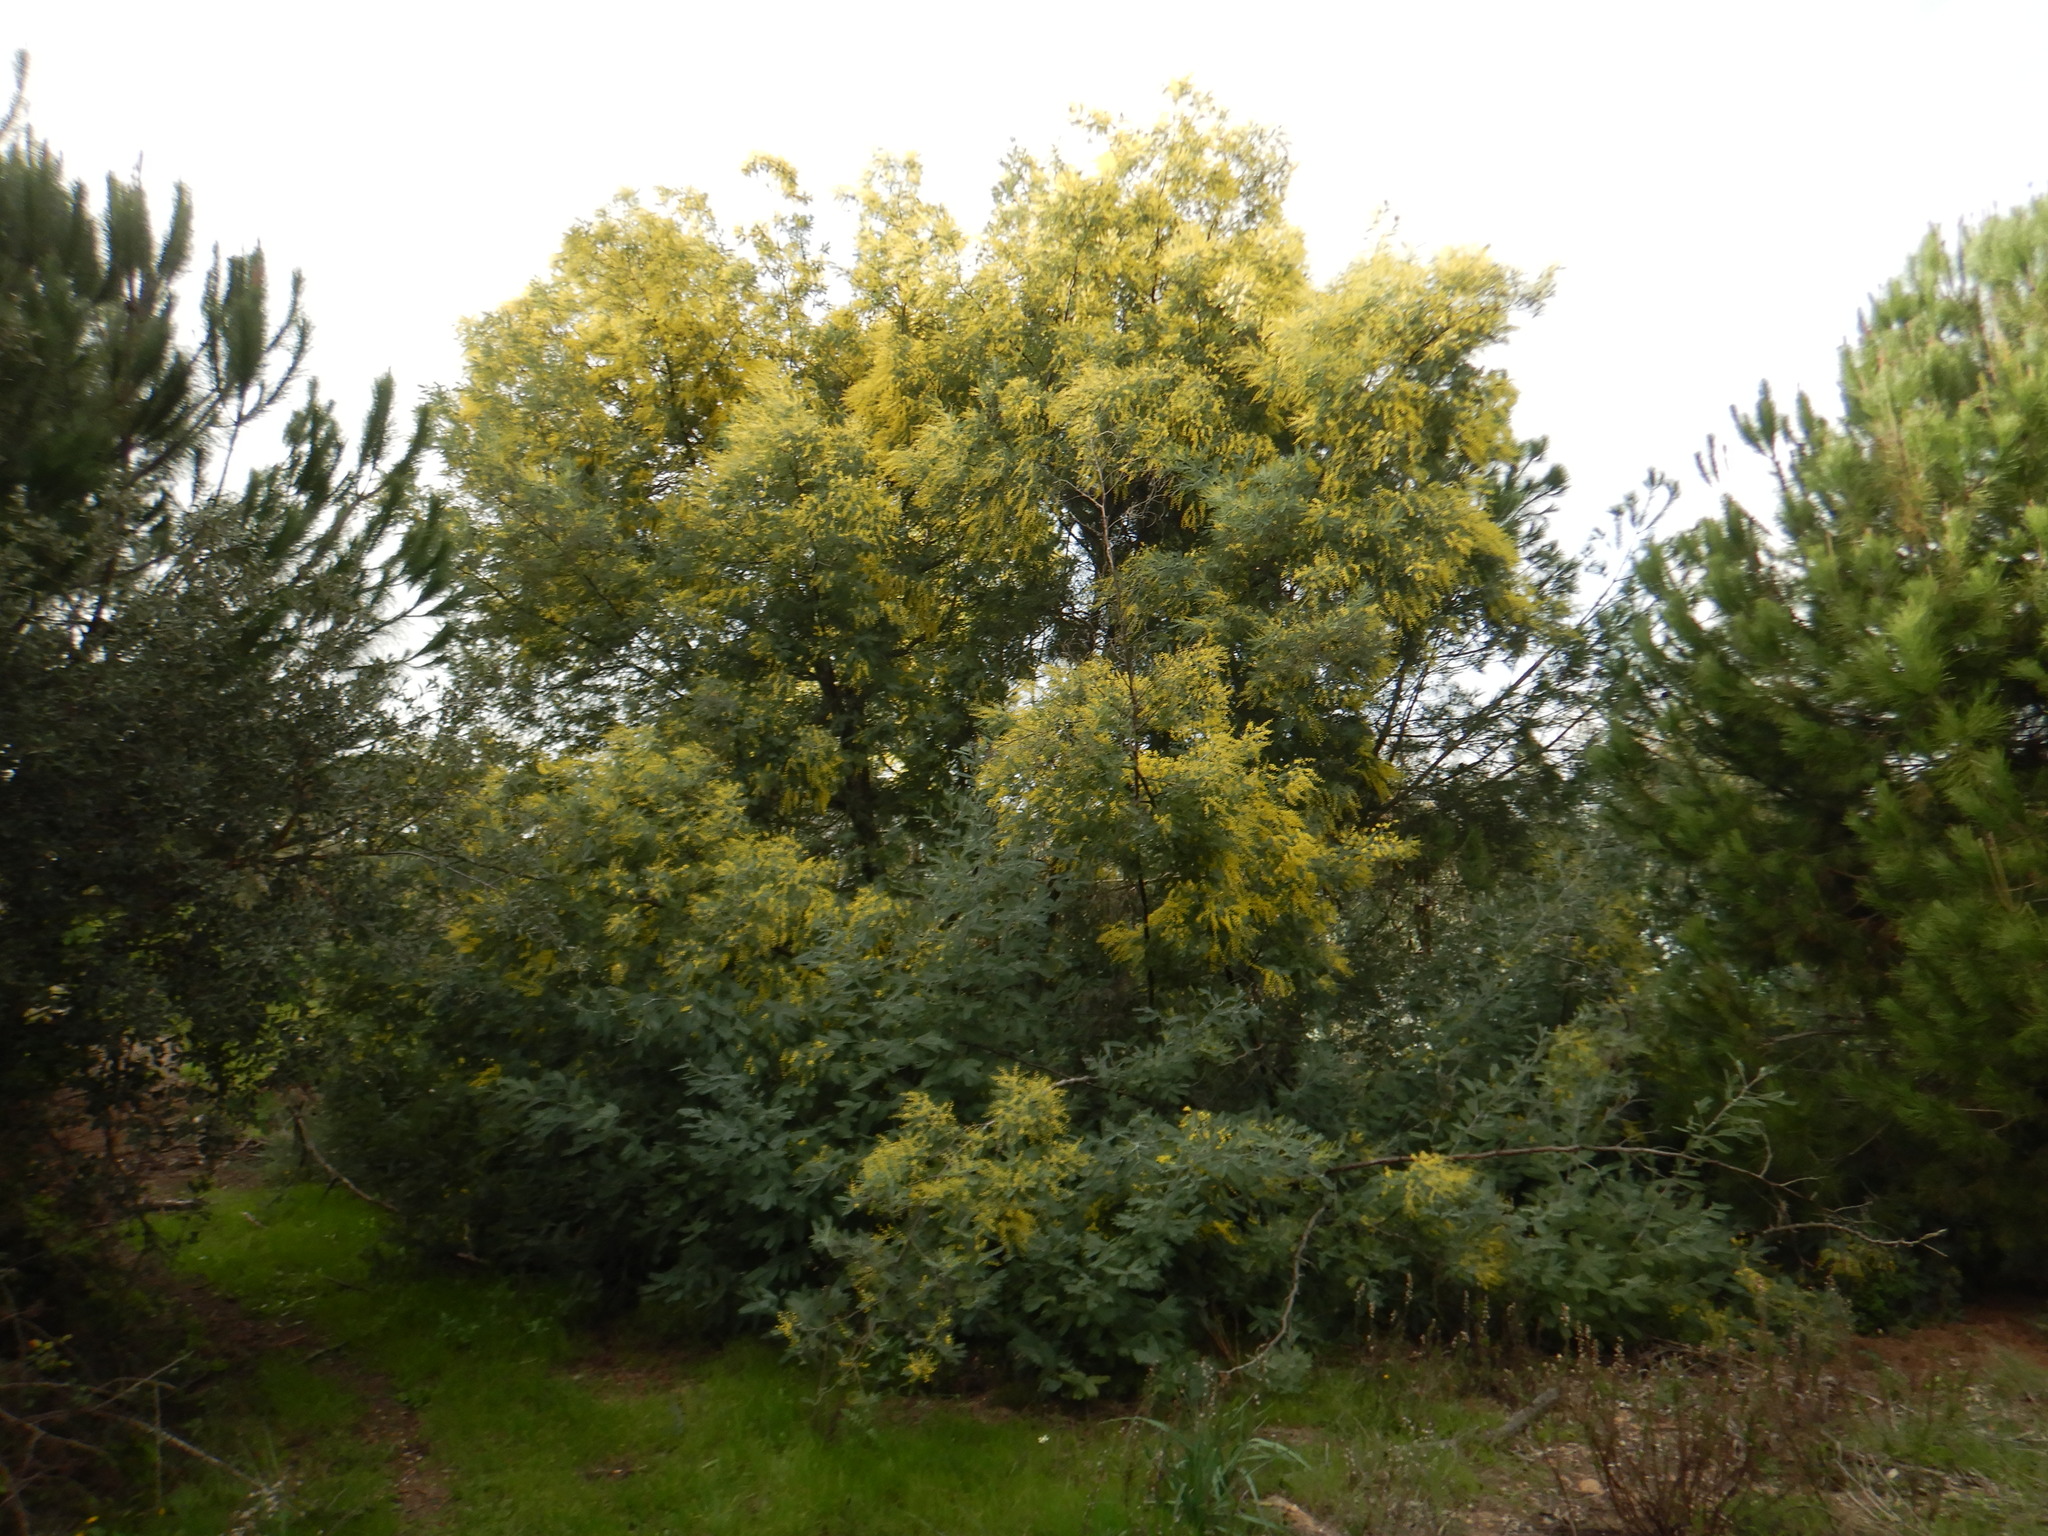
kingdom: Plantae
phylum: Tracheophyta
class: Magnoliopsida
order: Fabales
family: Fabaceae
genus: Acacia
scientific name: Acacia dealbata
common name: Silver wattle
